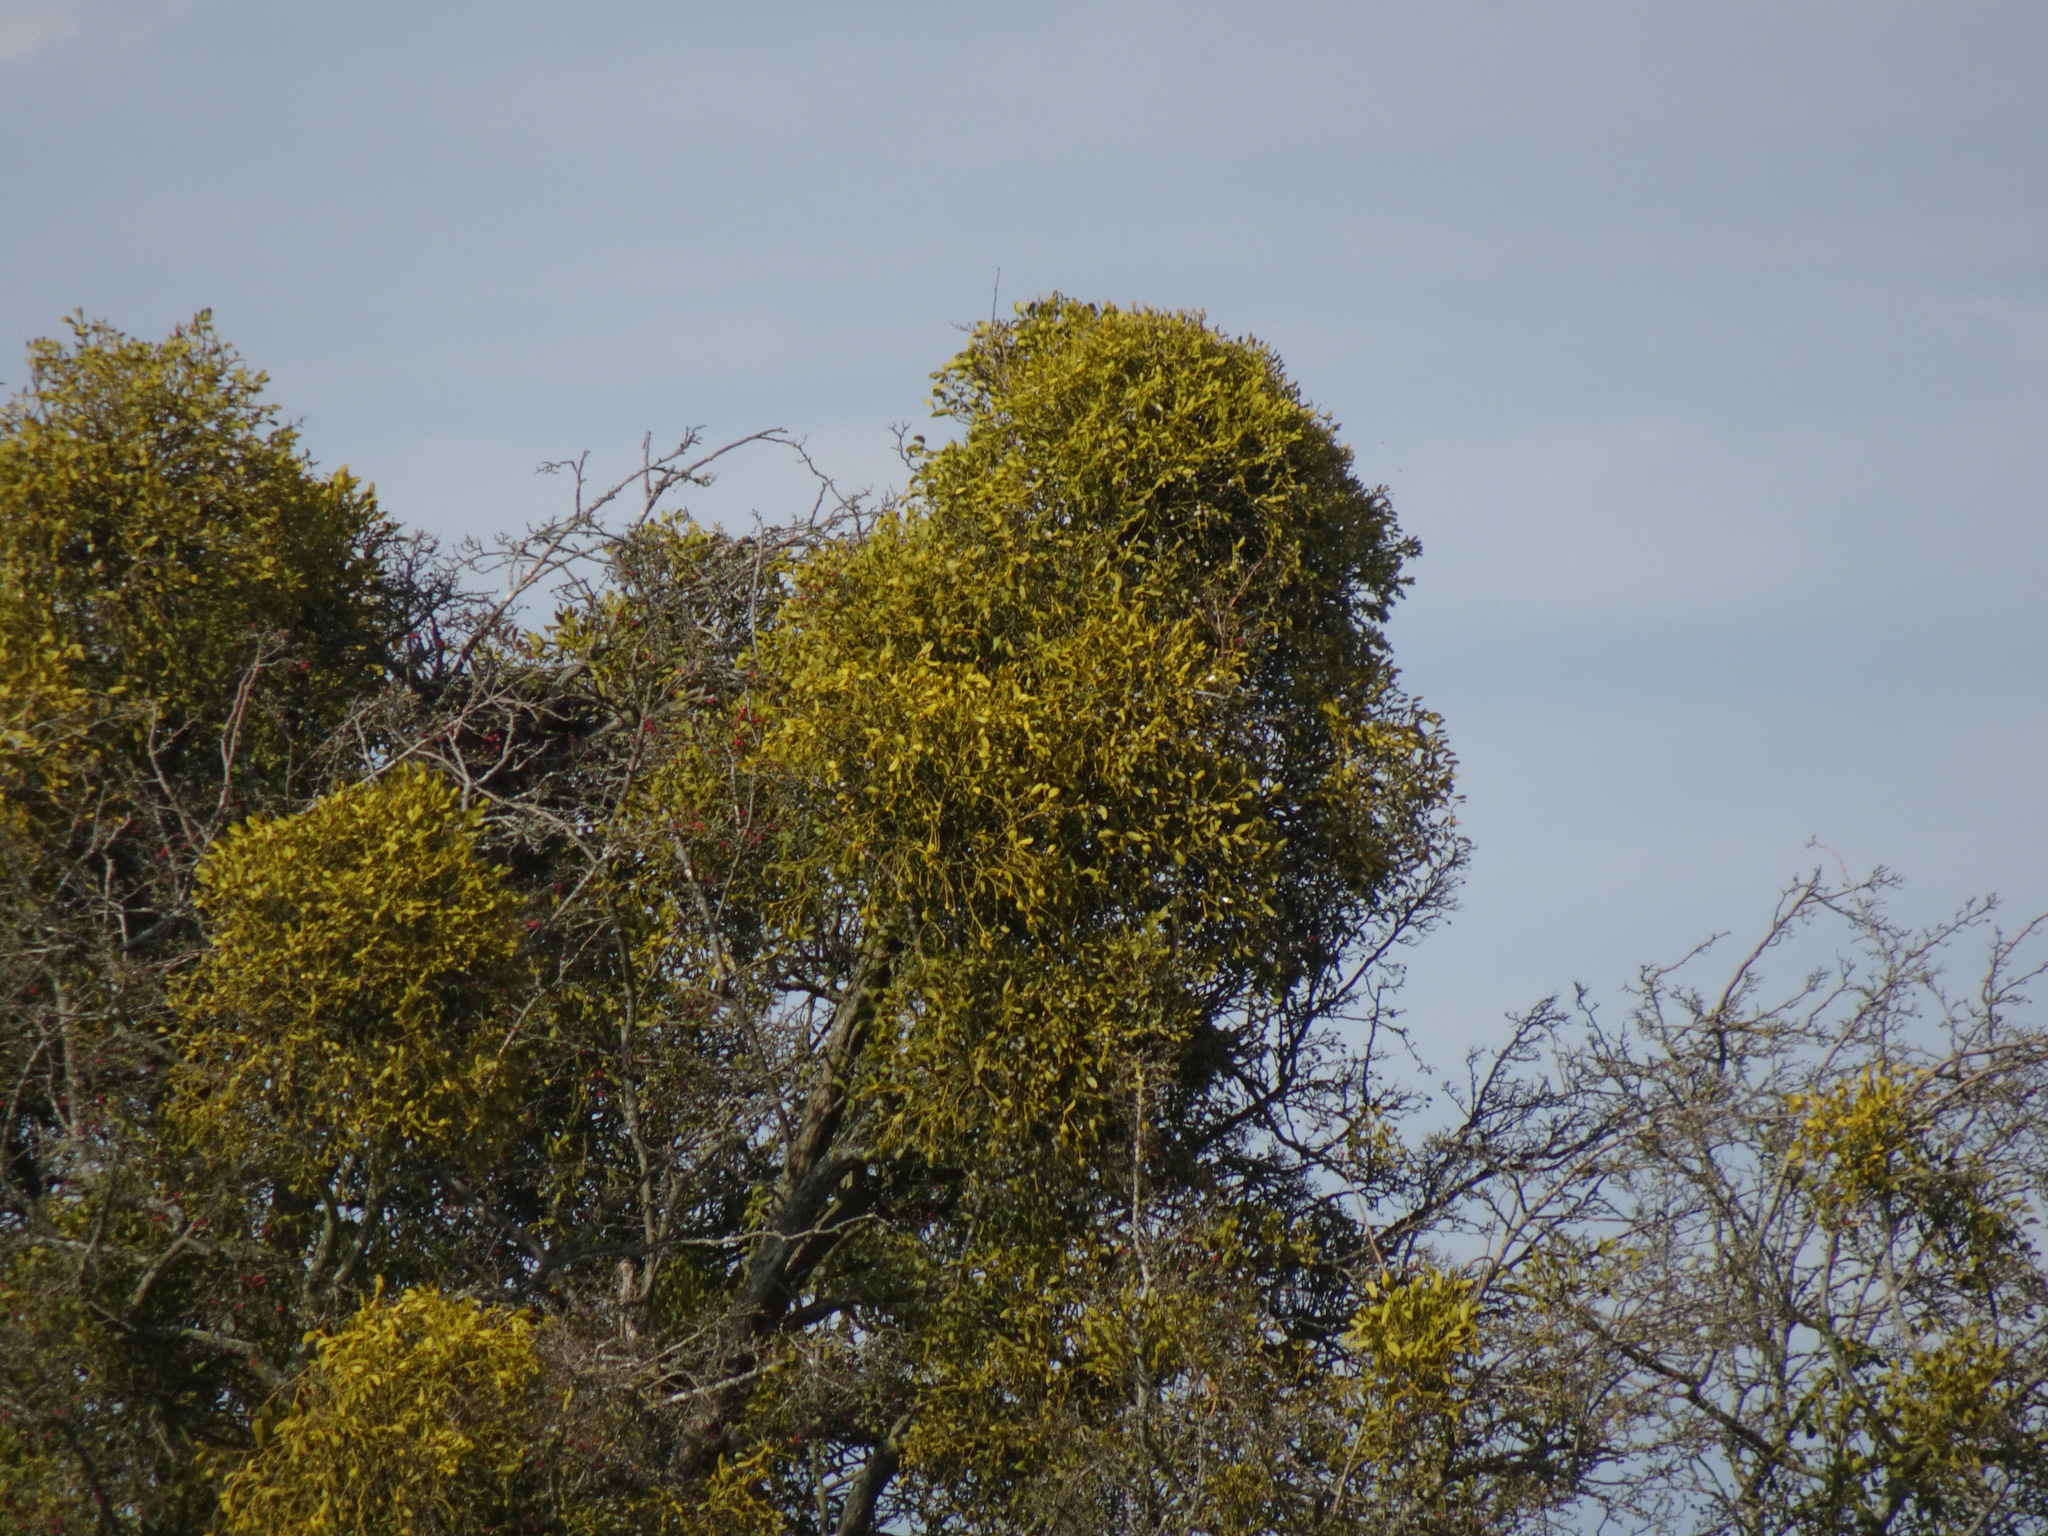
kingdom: Plantae
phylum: Tracheophyta
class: Magnoliopsida
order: Santalales
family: Viscaceae
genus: Viscum
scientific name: Viscum album
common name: Mistletoe
